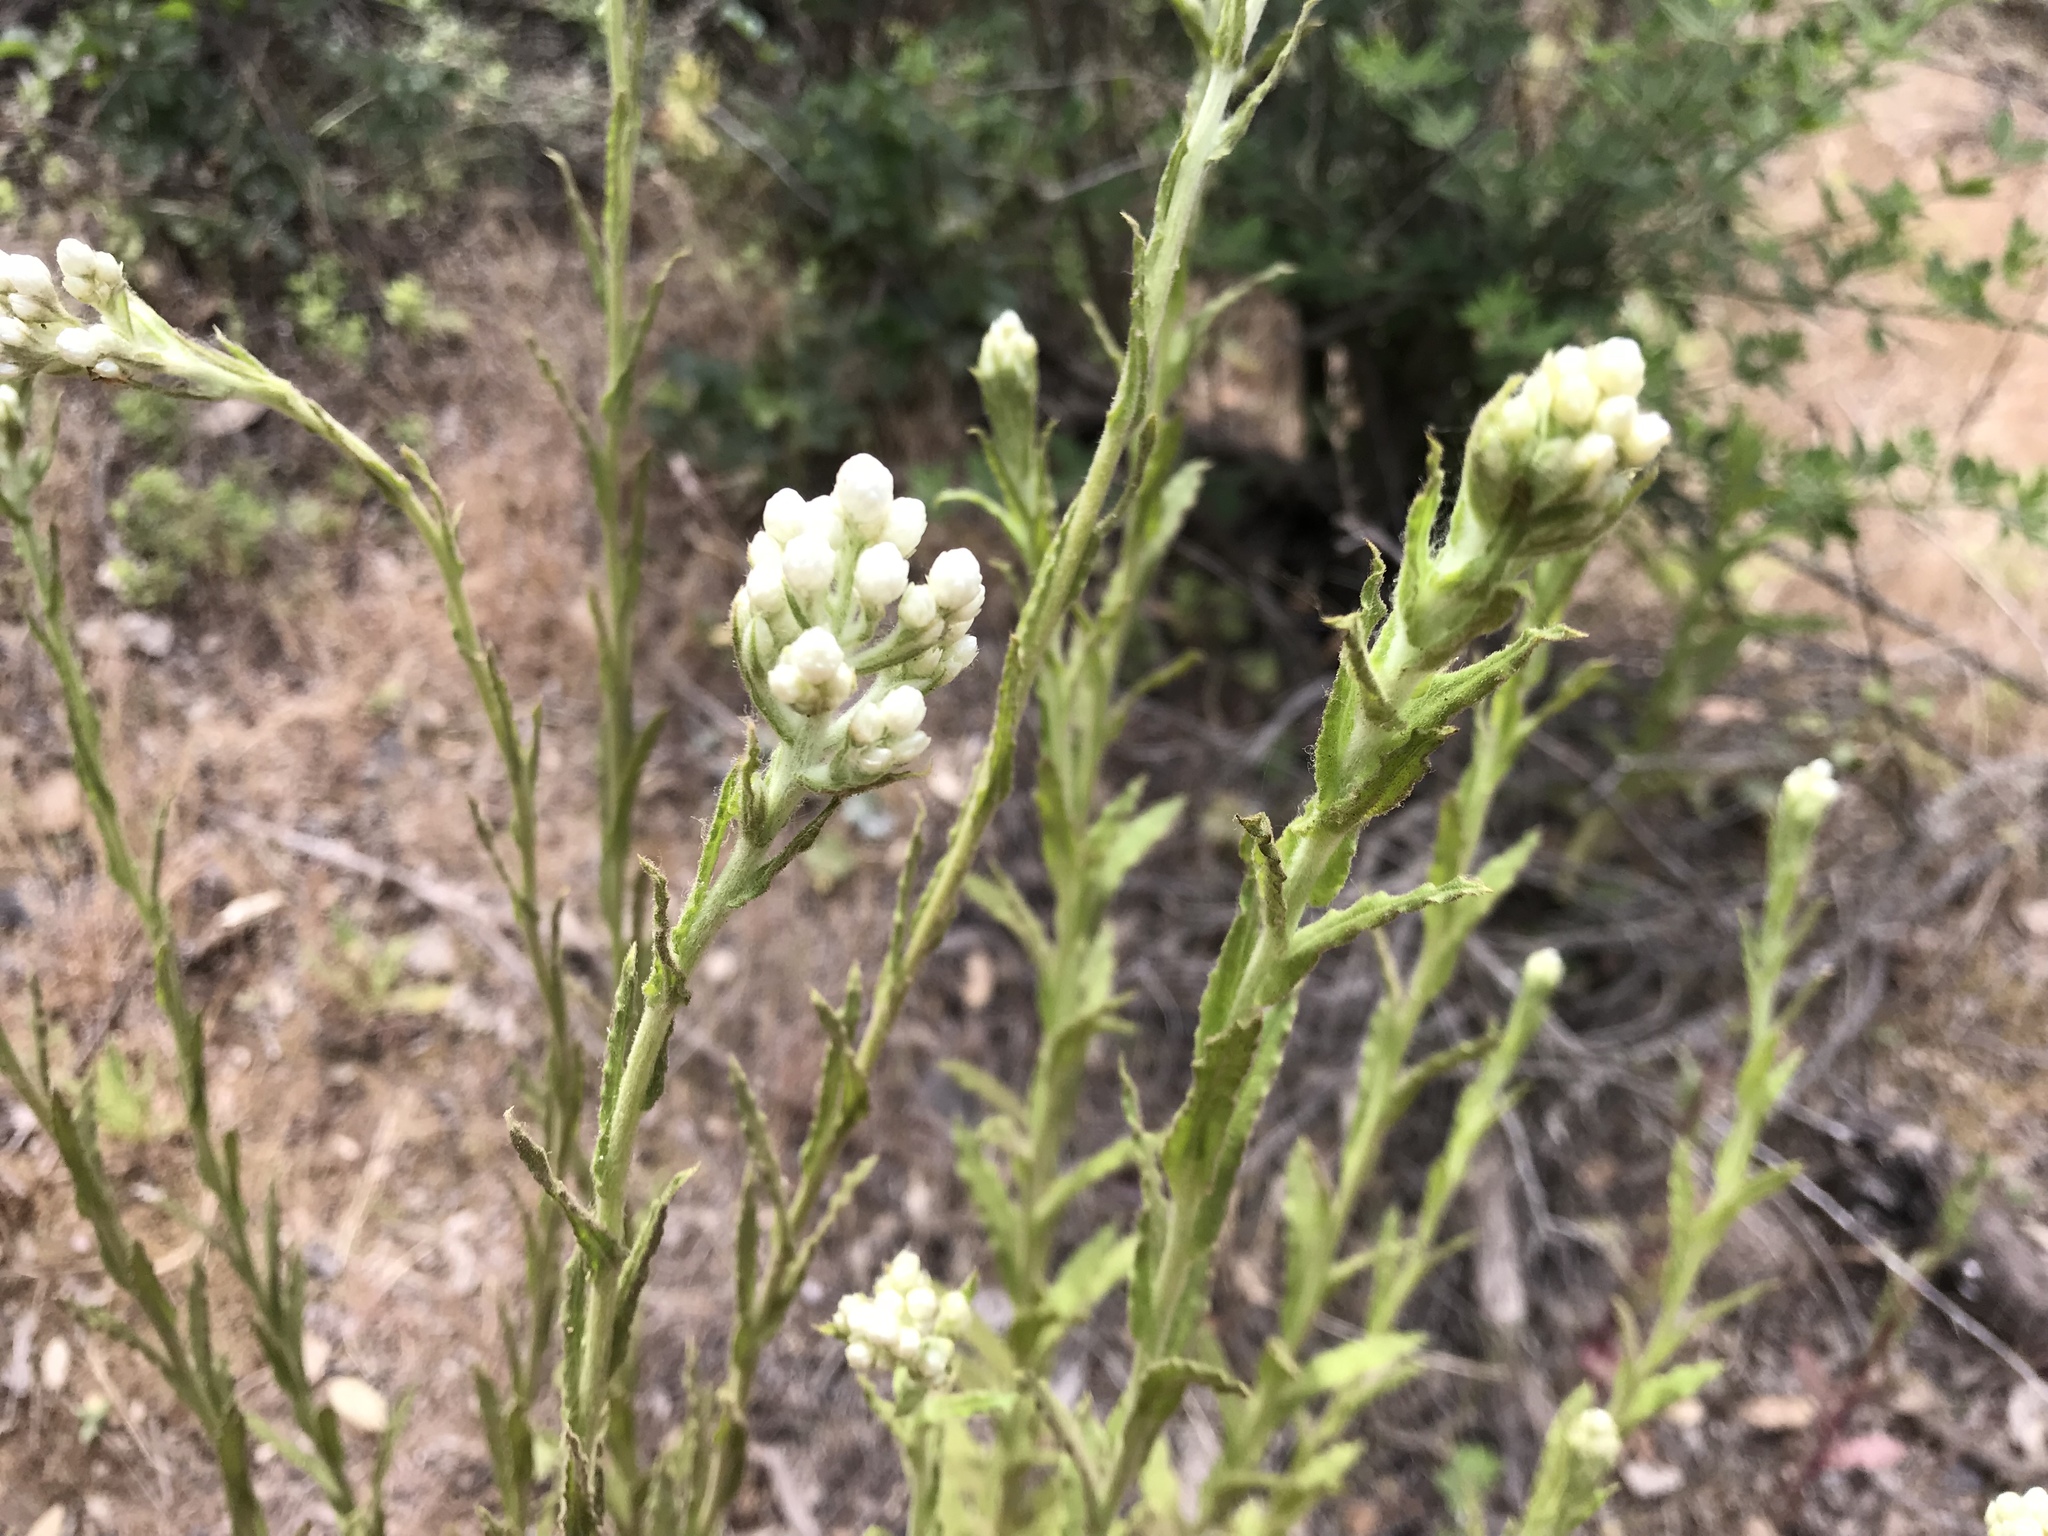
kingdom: Plantae
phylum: Tracheophyta
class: Magnoliopsida
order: Asterales
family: Asteraceae
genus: Pseudognaphalium
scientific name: Pseudognaphalium californicum
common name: California rabbit-tobacco
